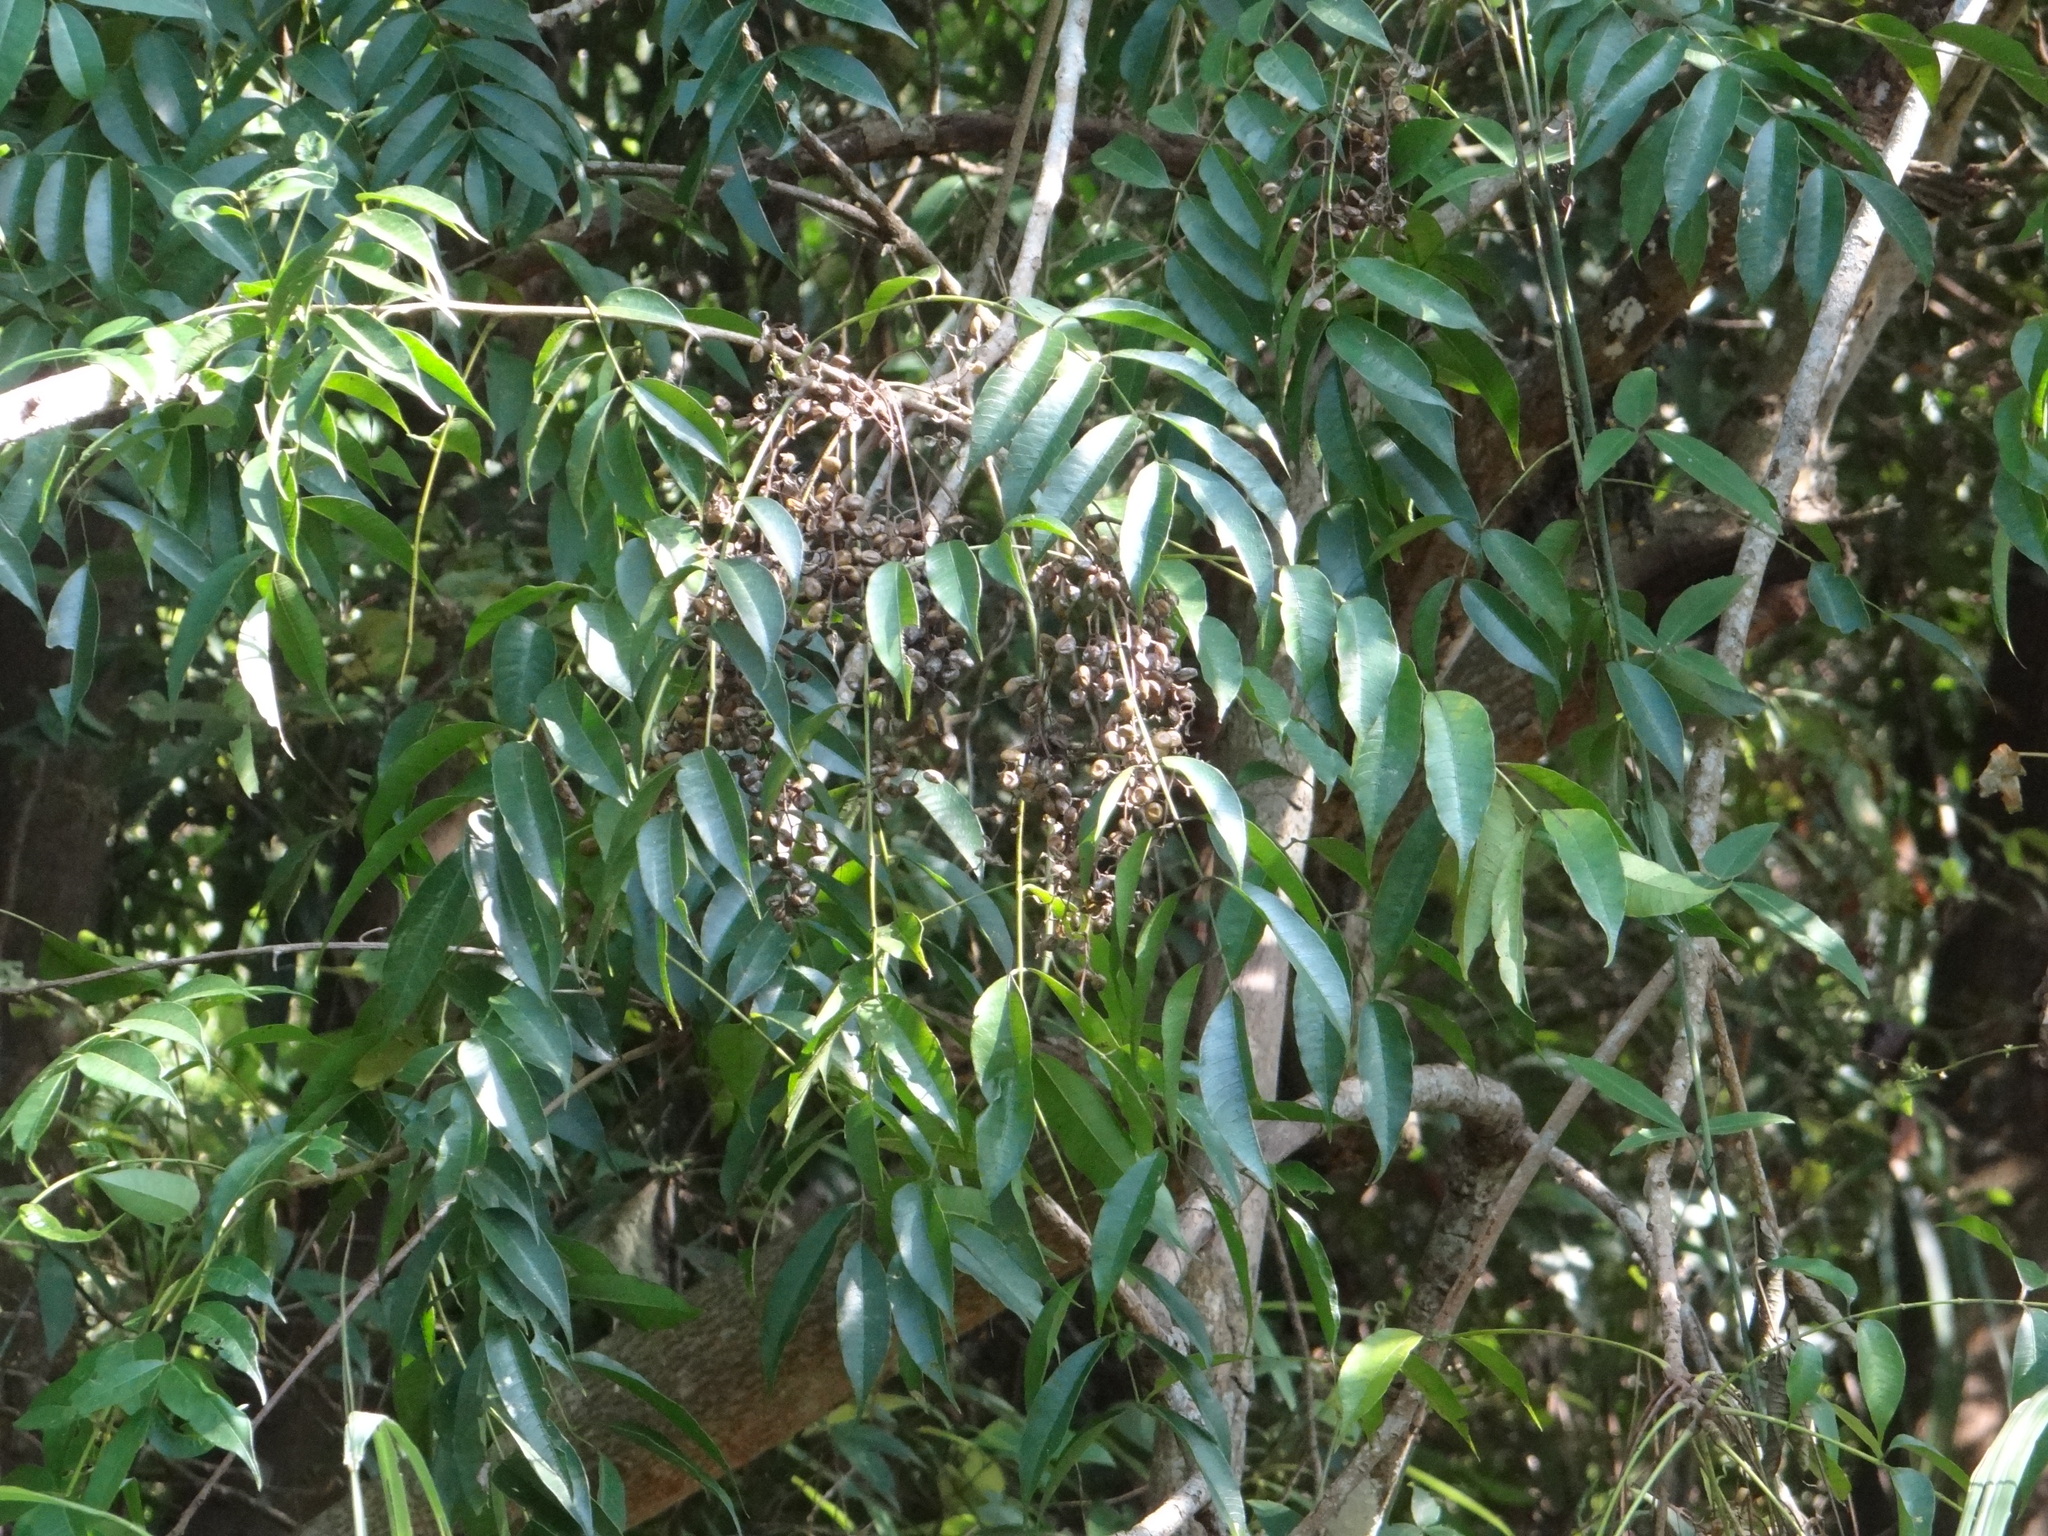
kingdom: Plantae
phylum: Tracheophyta
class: Magnoliopsida
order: Sapindales
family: Anacardiaceae
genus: Toxicodendron
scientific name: Toxicodendron succedaneum
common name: Wax tree
